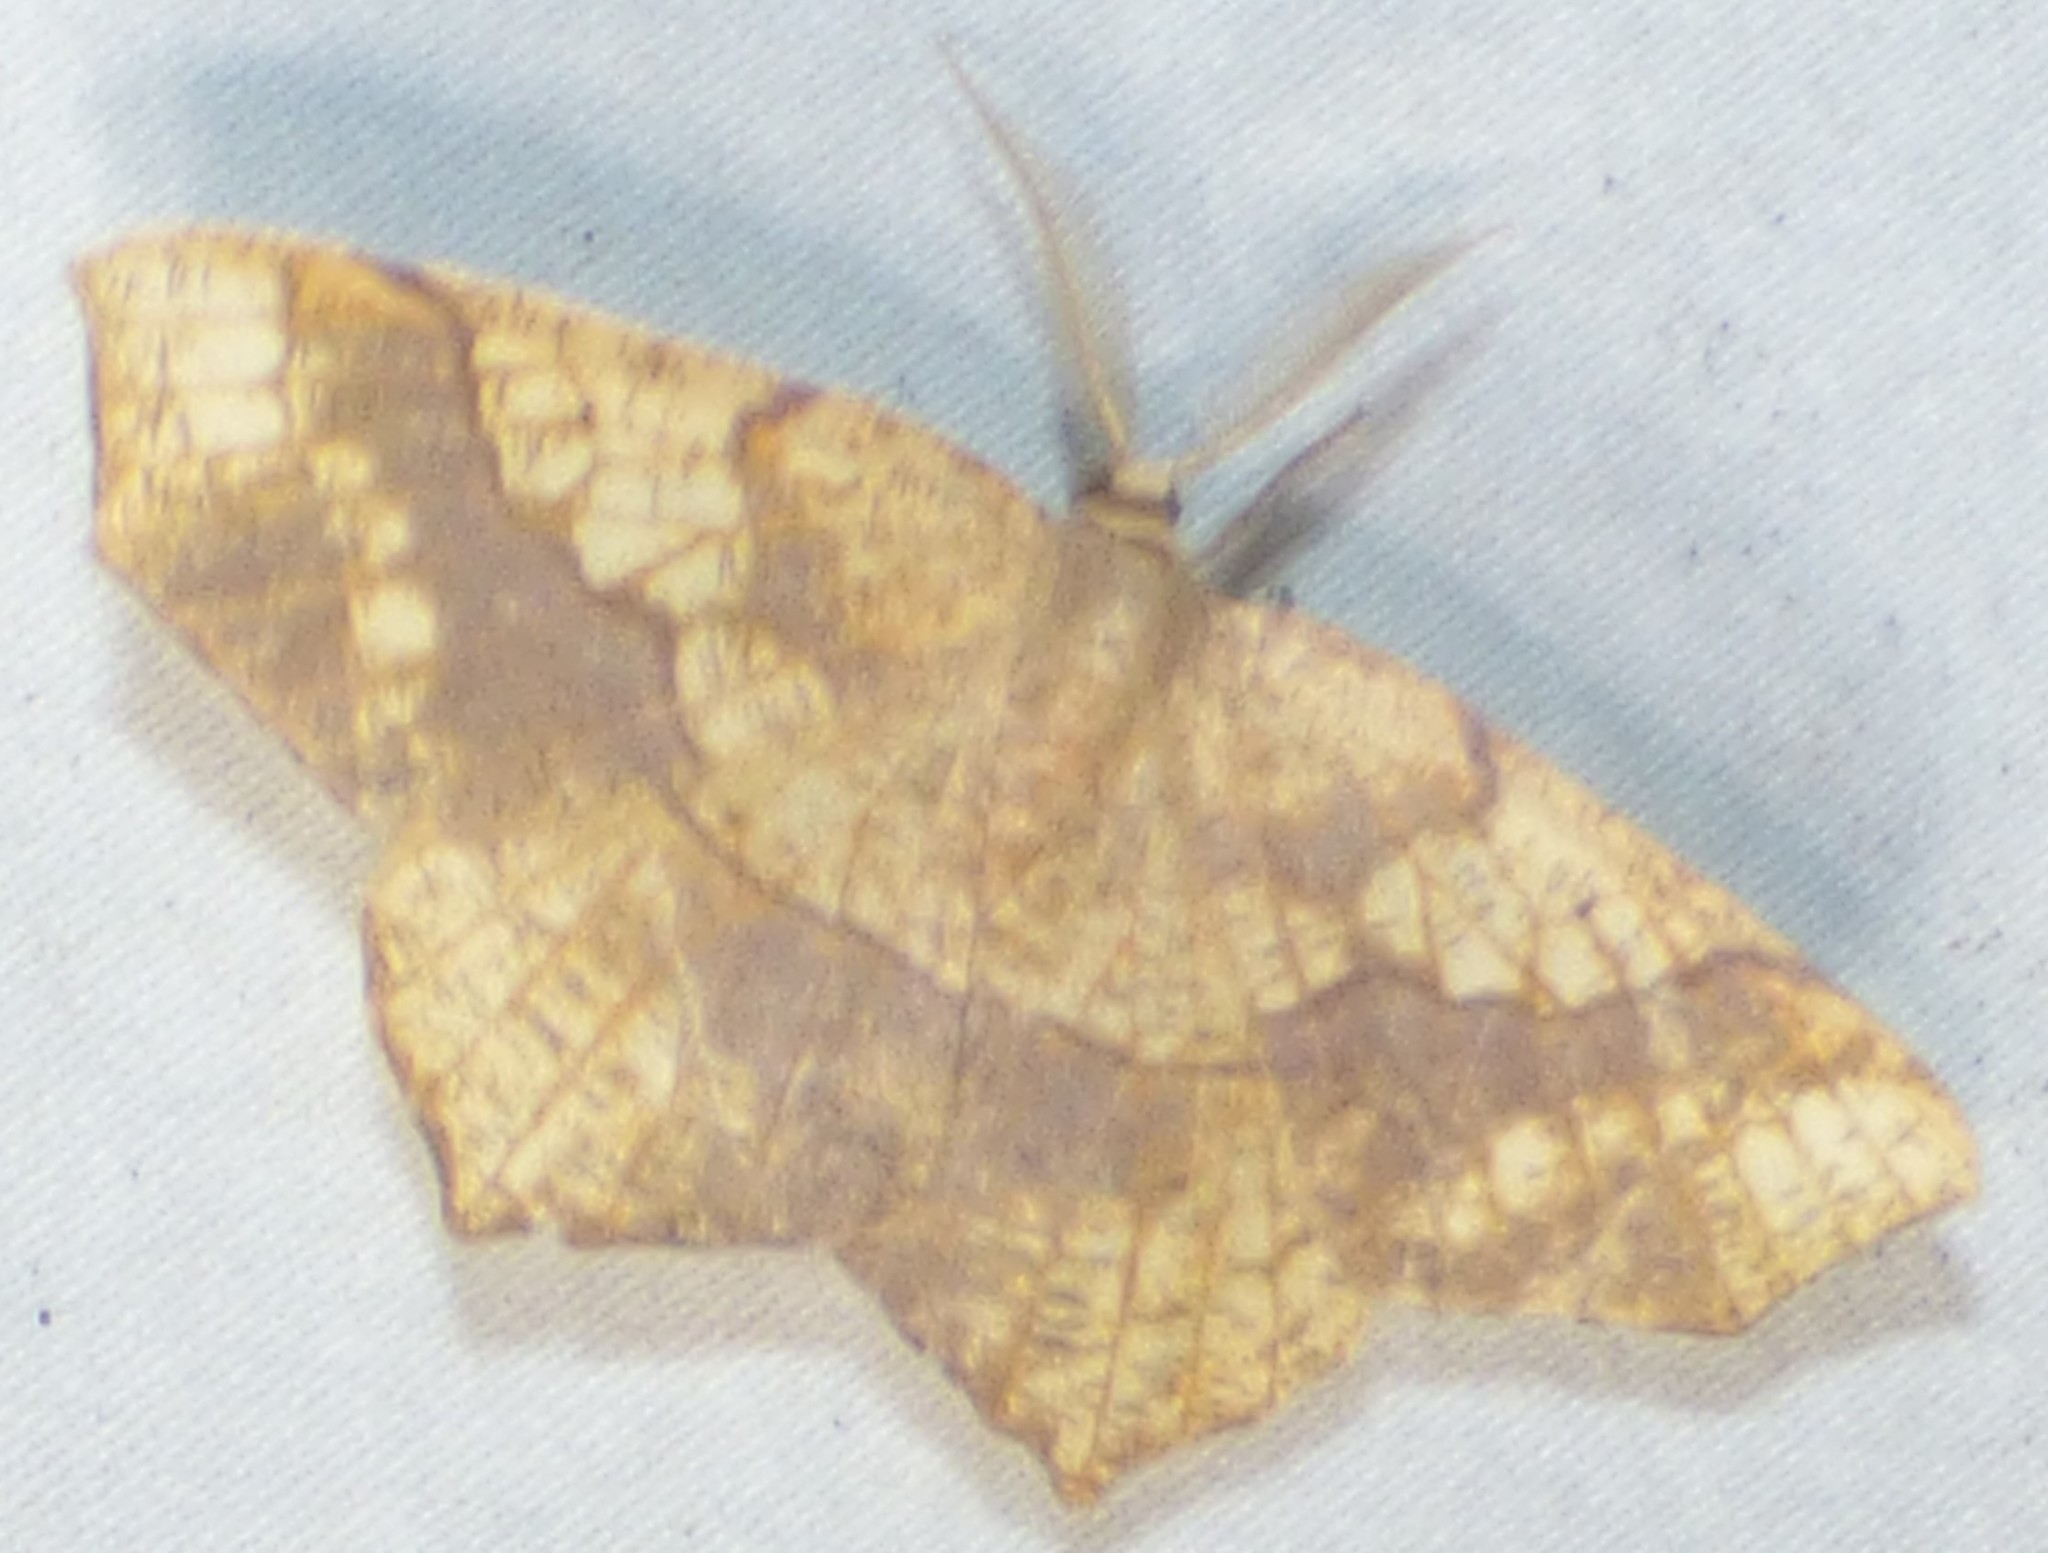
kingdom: Animalia
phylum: Arthropoda
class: Insecta
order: Lepidoptera
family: Geometridae
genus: Besma
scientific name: Besma quercivoraria
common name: Oak besma
